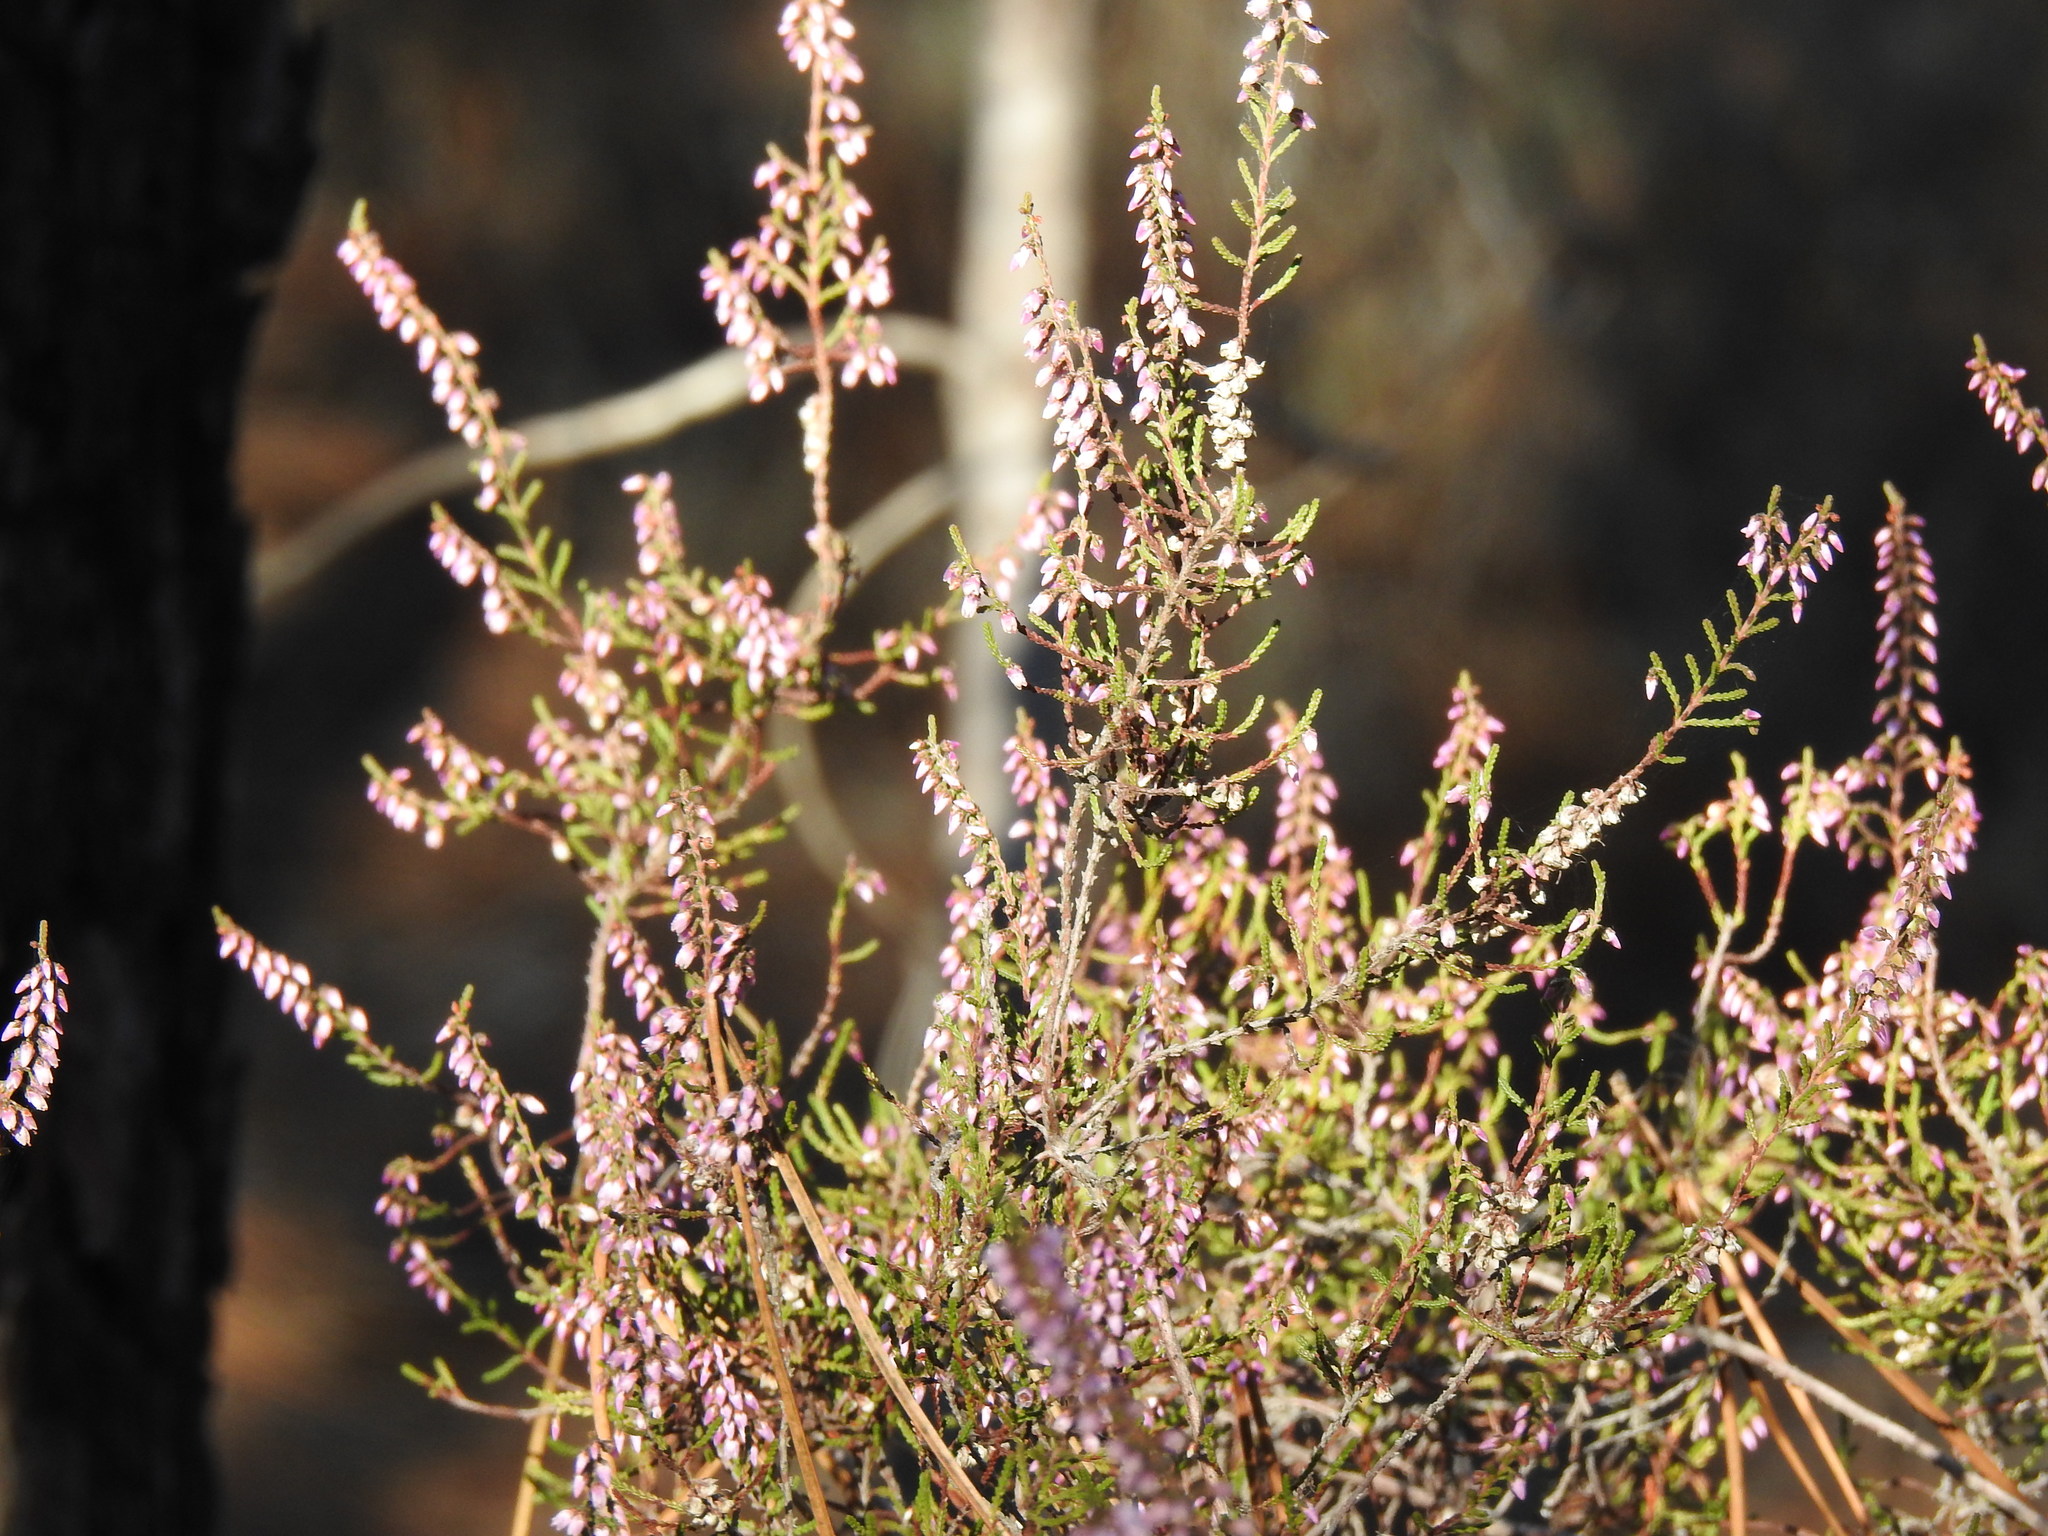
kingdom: Plantae
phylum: Tracheophyta
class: Magnoliopsida
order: Ericales
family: Ericaceae
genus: Calluna
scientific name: Calluna vulgaris
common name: Heather
